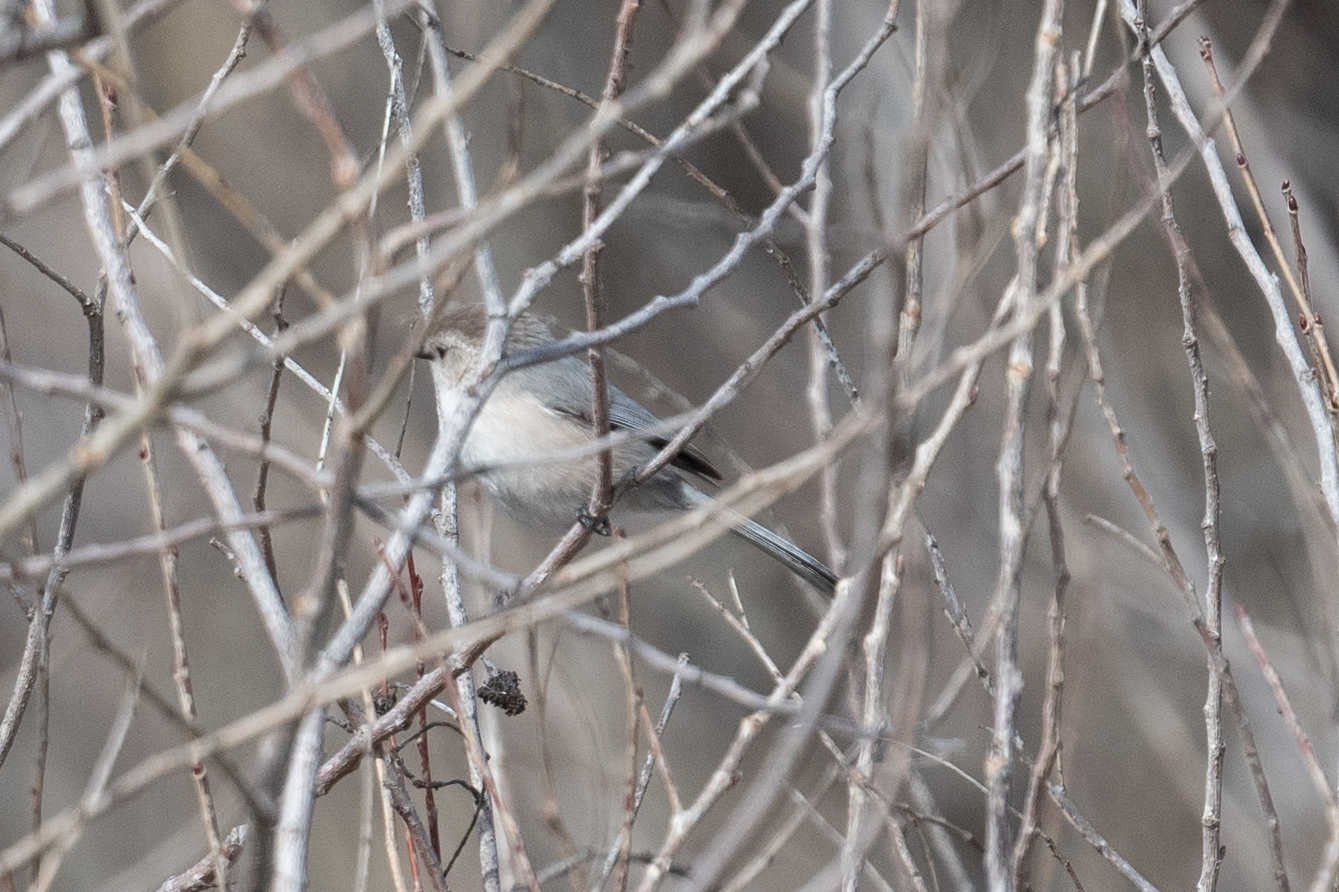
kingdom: Animalia
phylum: Chordata
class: Aves
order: Passeriformes
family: Aegithalidae
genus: Psaltriparus
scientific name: Psaltriparus minimus
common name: American bushtit
